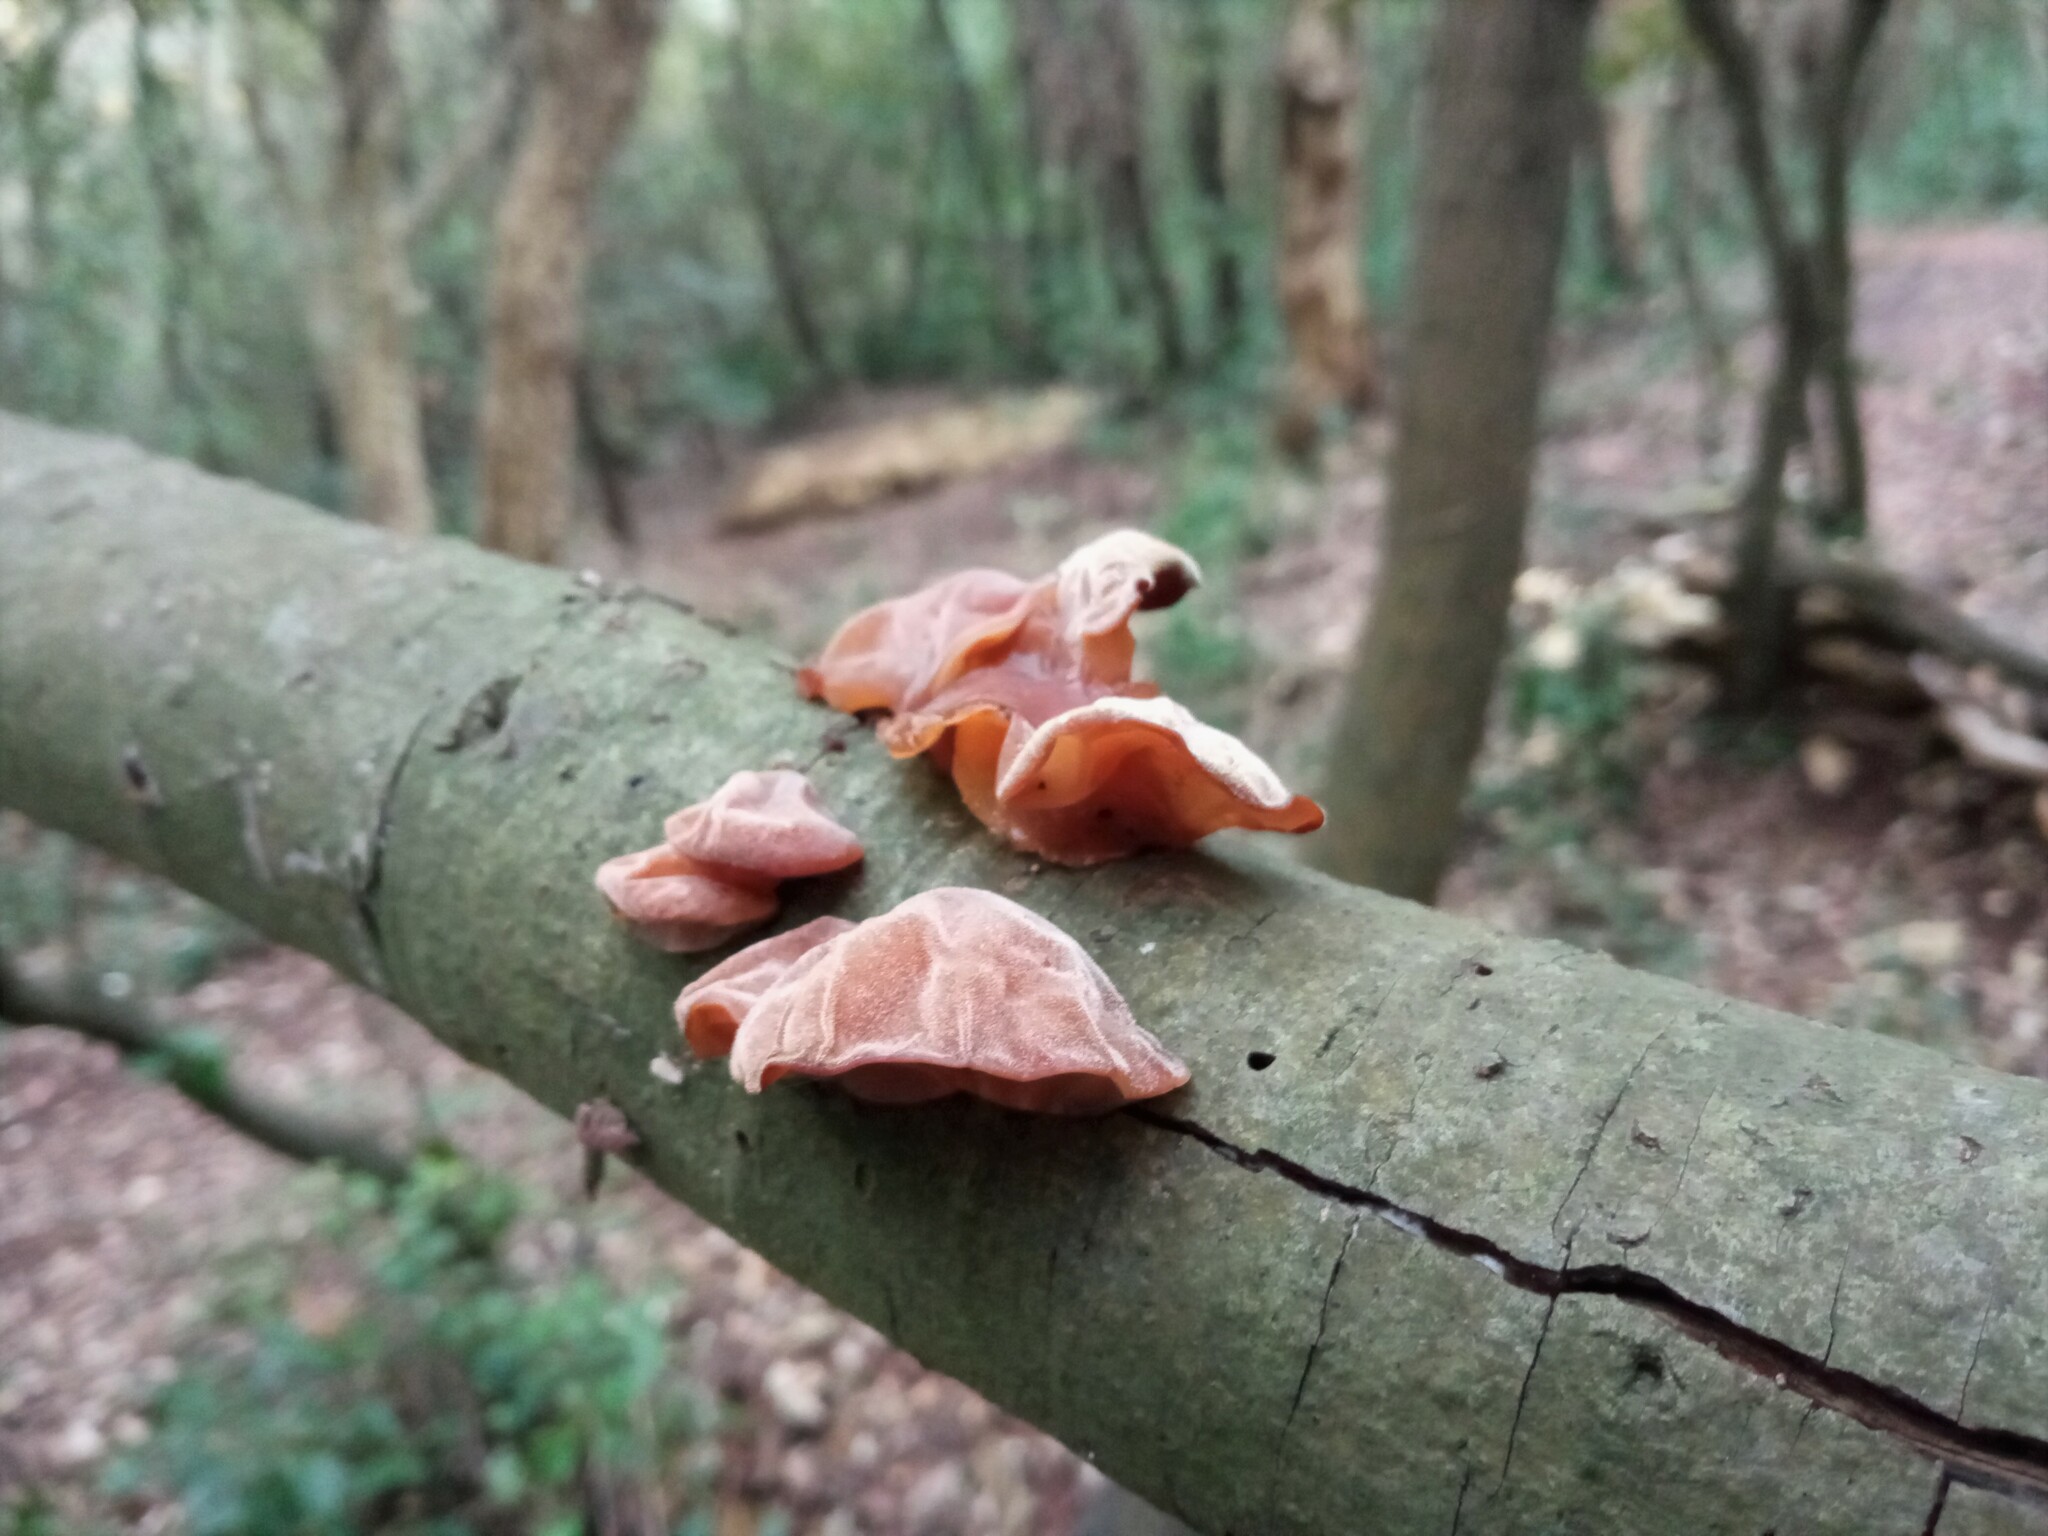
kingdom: Fungi
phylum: Basidiomycota
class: Agaricomycetes
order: Auriculariales
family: Auriculariaceae
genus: Auricularia
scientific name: Auricularia auricula-judae
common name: Jelly ear
